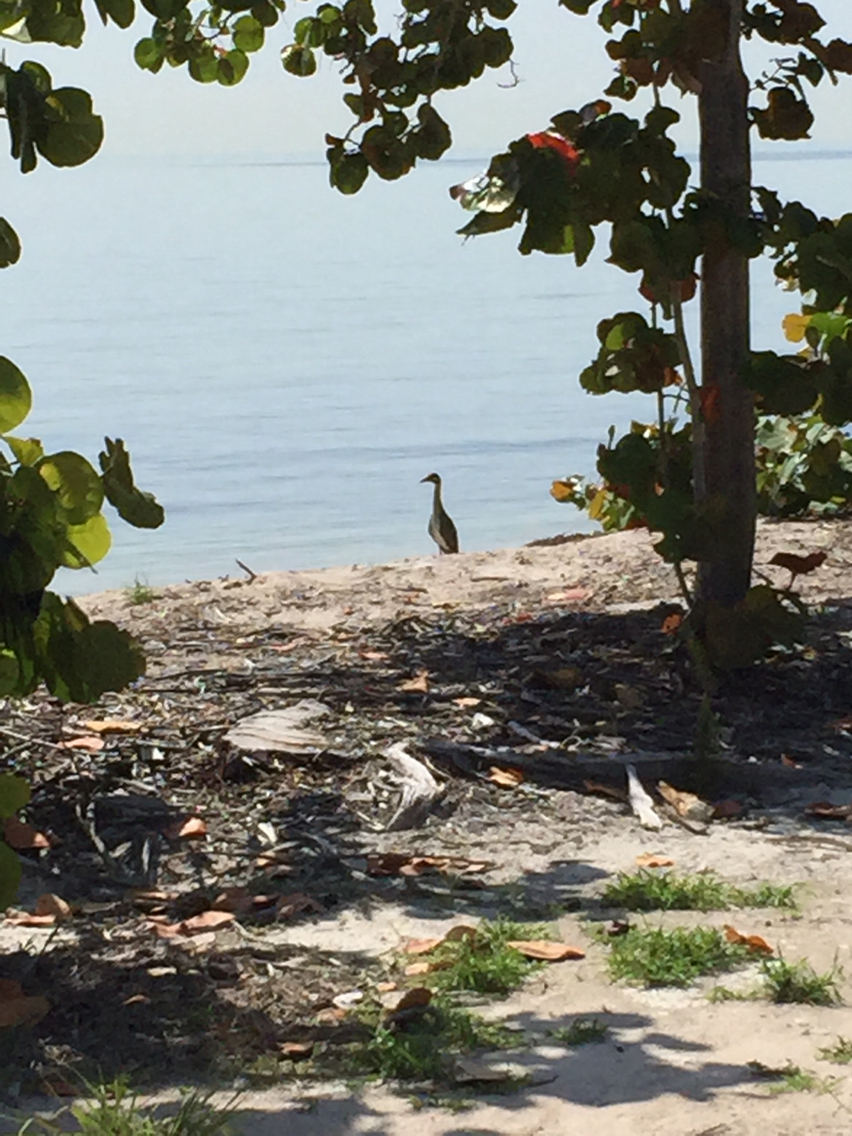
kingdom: Animalia
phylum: Chordata
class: Aves
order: Pelecaniformes
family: Ardeidae
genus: Nyctanassa
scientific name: Nyctanassa violacea
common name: Yellow-crowned night heron
